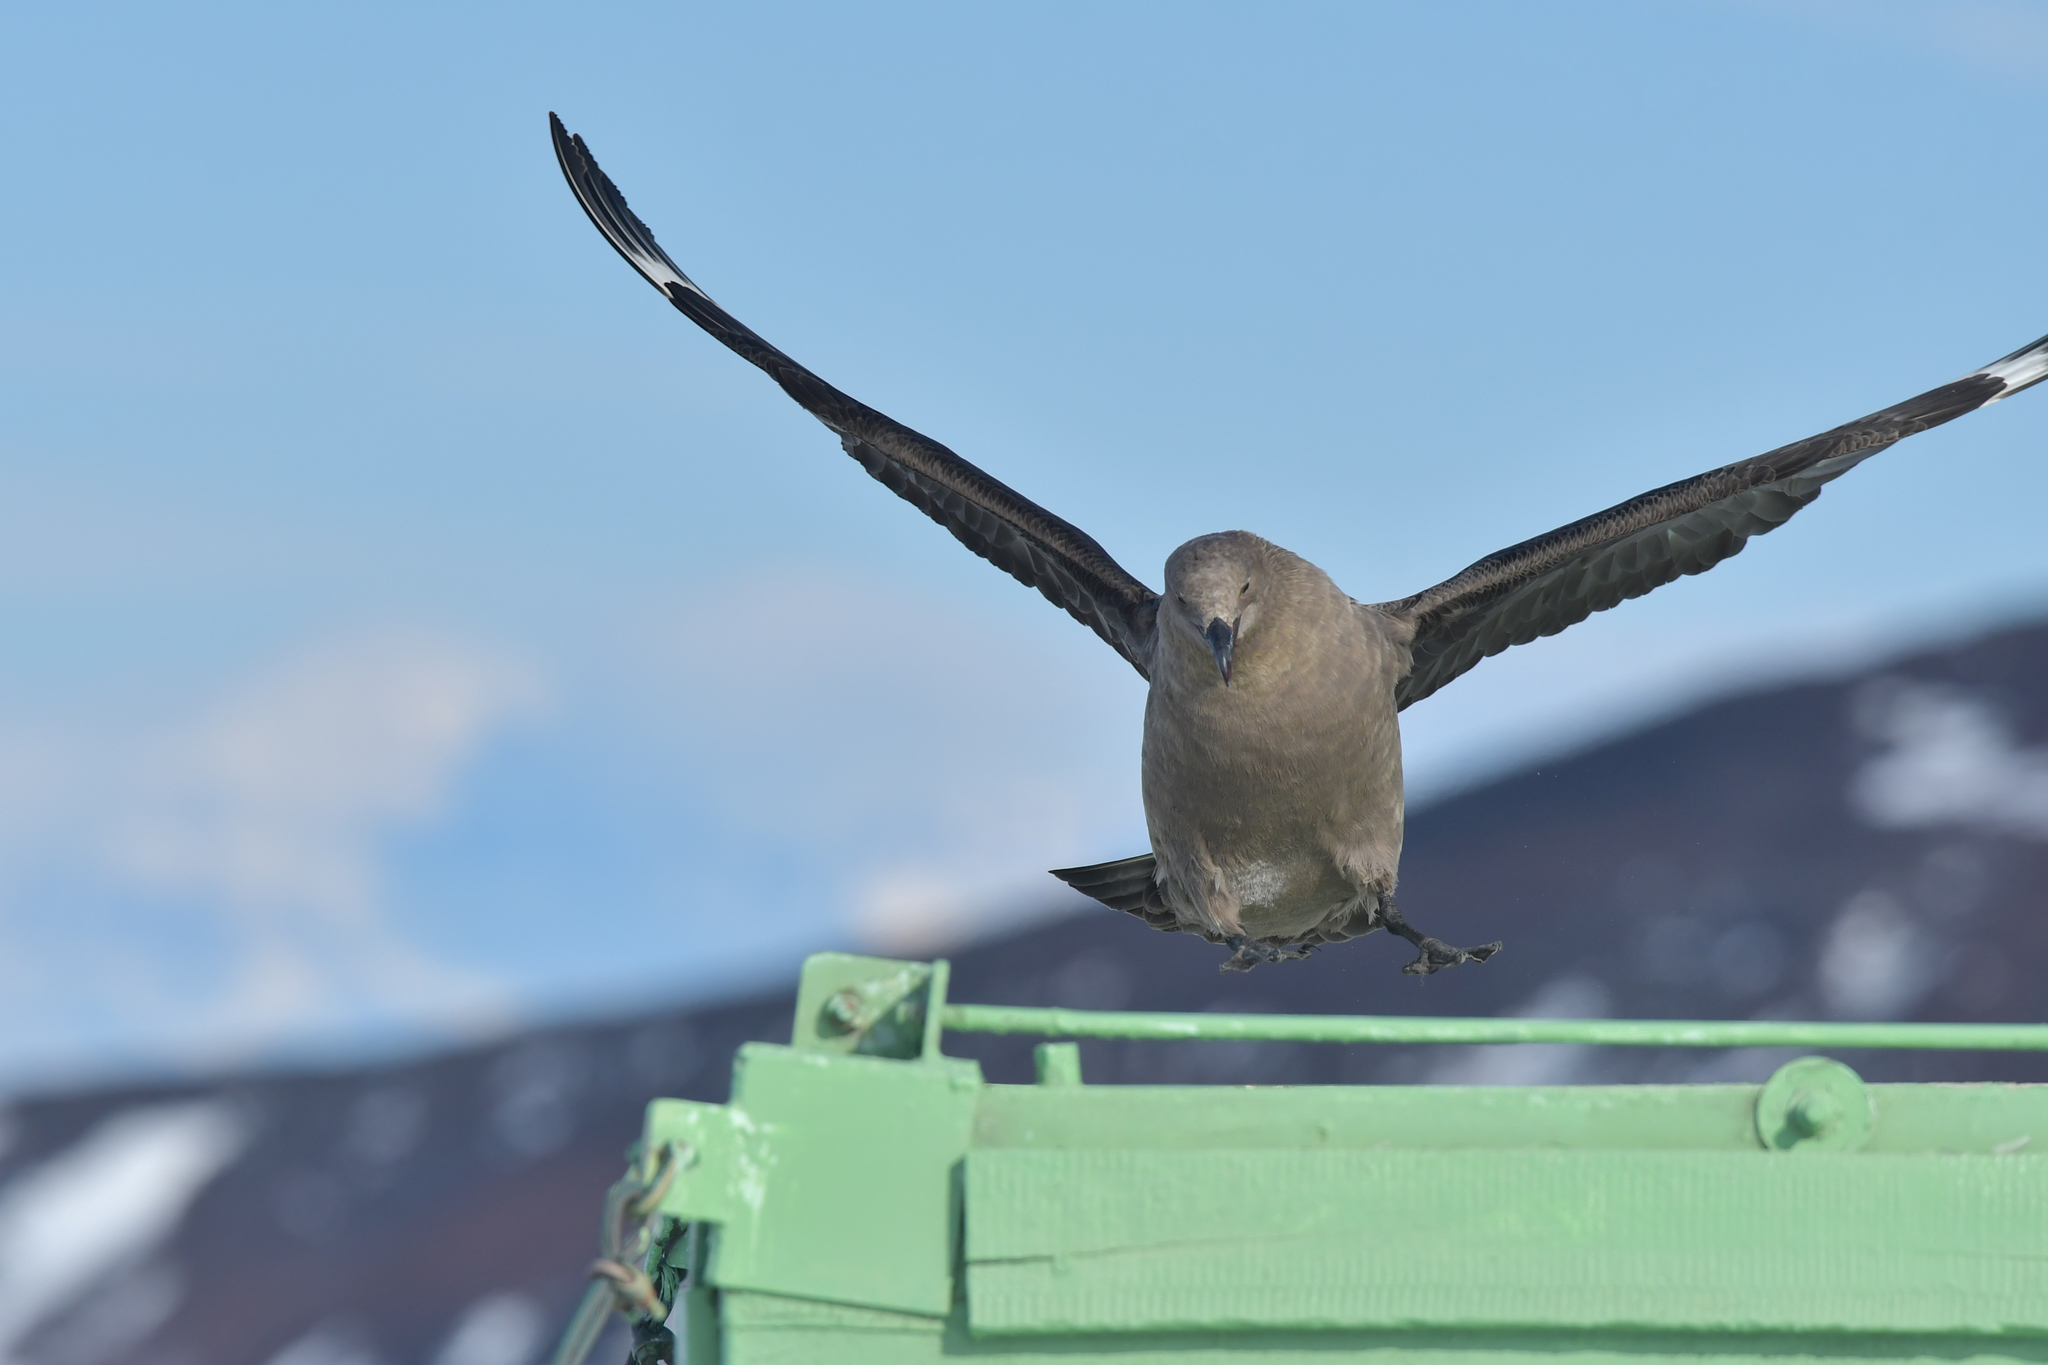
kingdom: Animalia
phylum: Chordata
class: Aves
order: Charadriiformes
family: Stercorariidae
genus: Stercorarius
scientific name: Stercorarius maccormicki
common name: South polar skua
